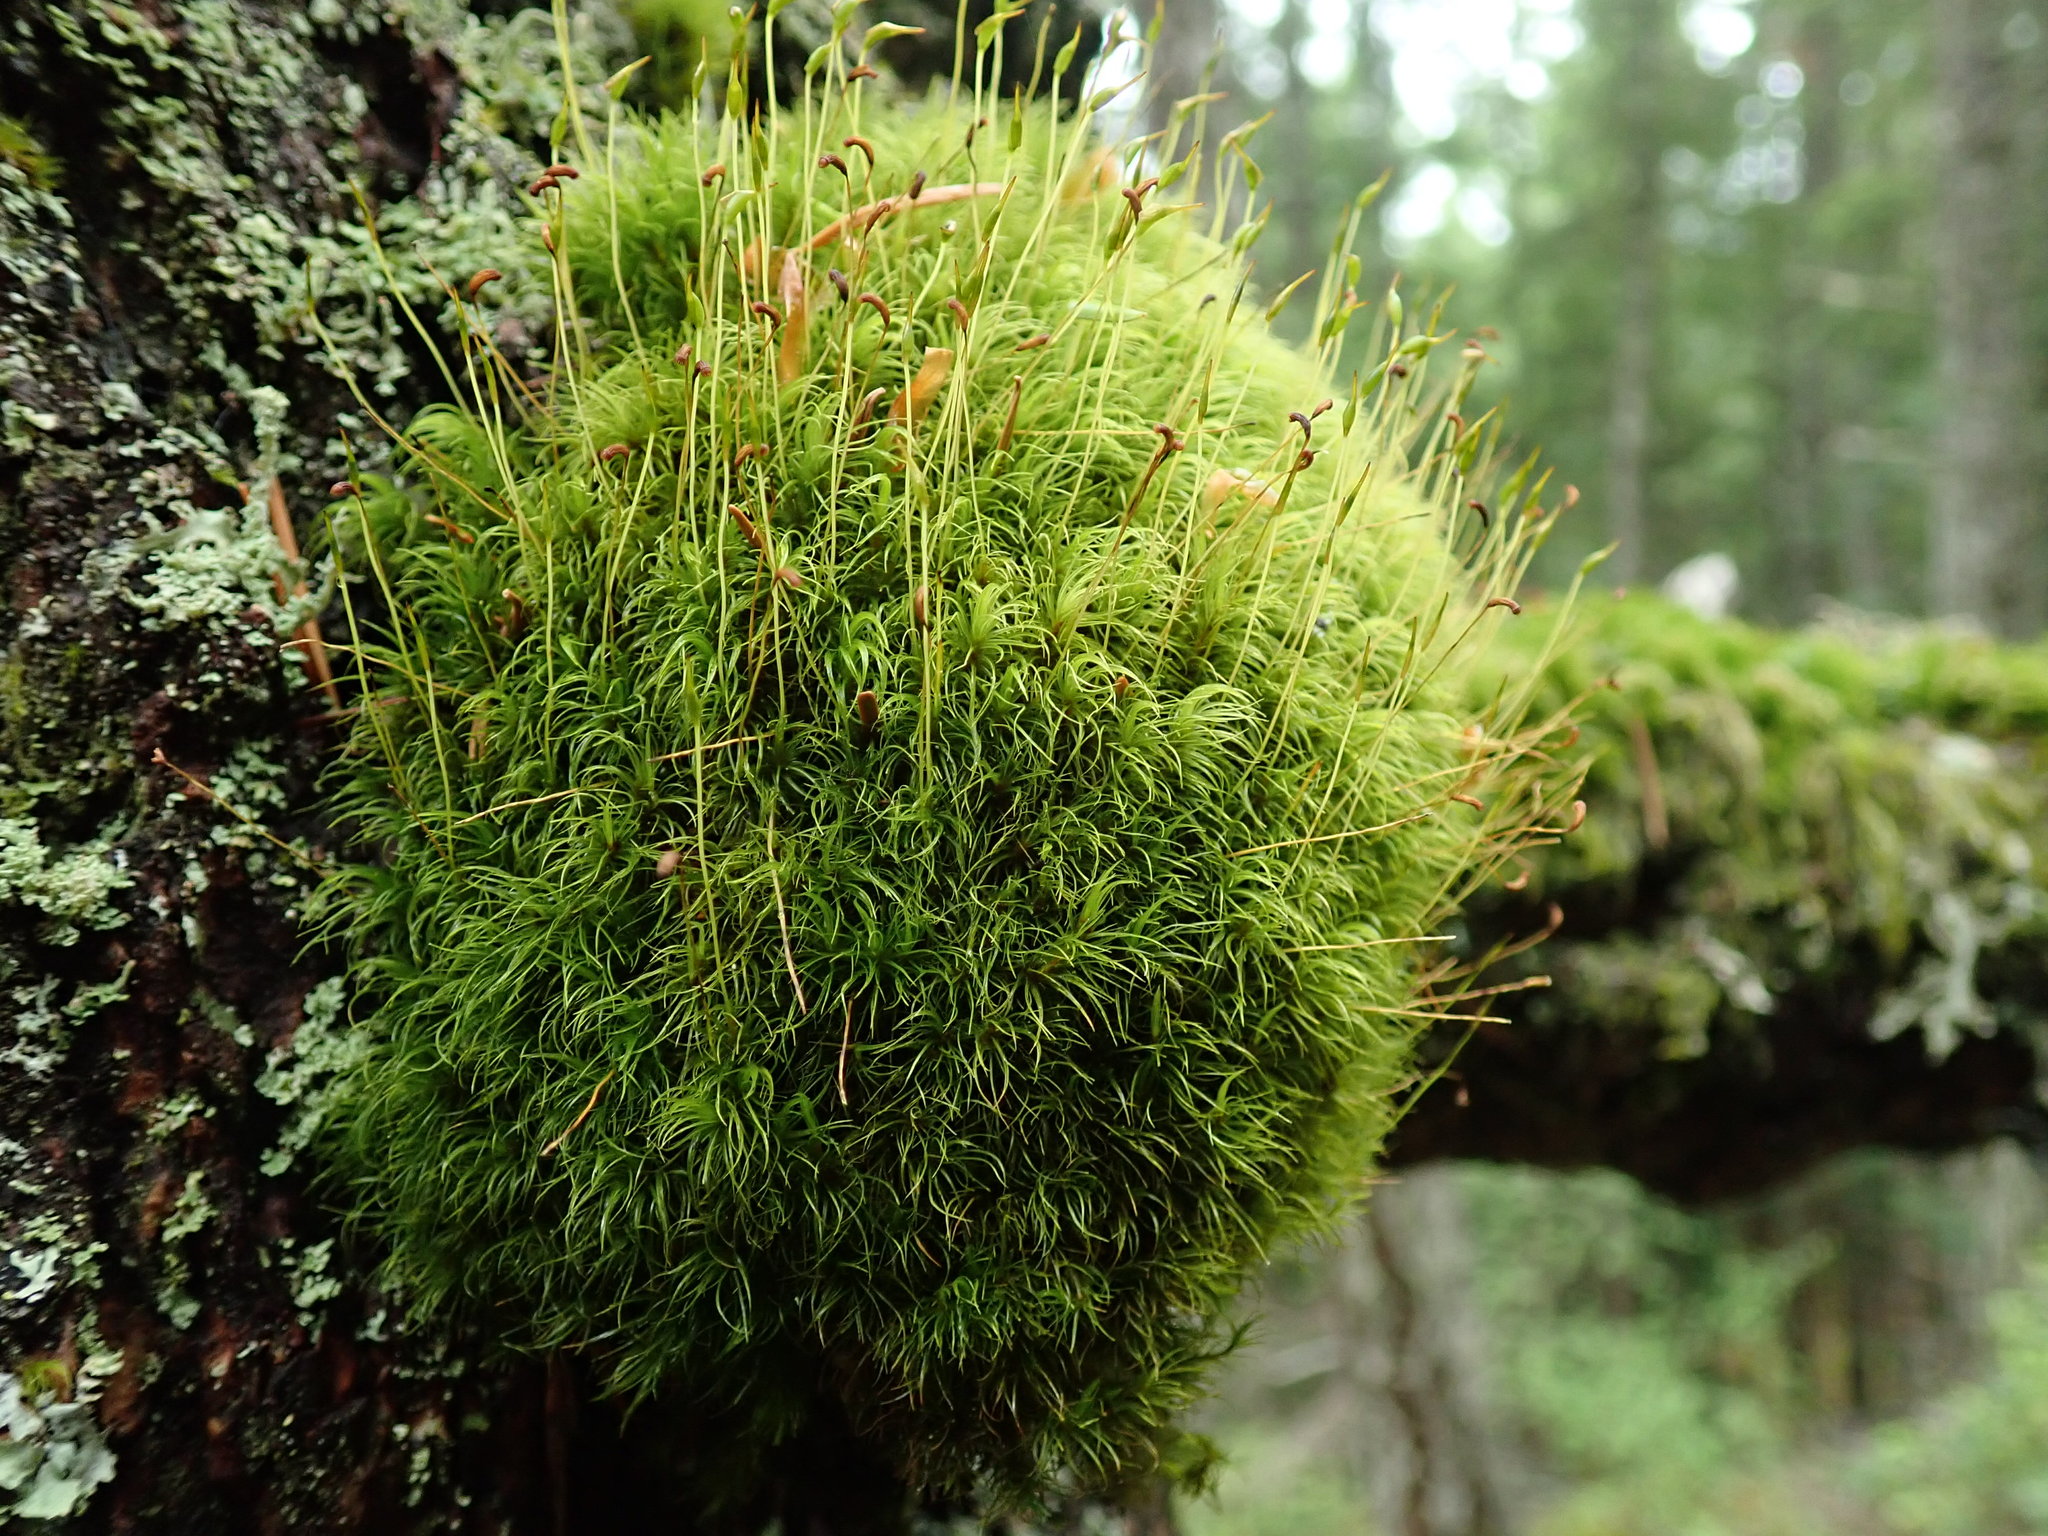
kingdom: Plantae
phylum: Bryophyta
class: Bryopsida
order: Dicranales
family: Dicranaceae
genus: Dicranum
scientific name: Dicranum fuscescens
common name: Curly heron's-bill moss
